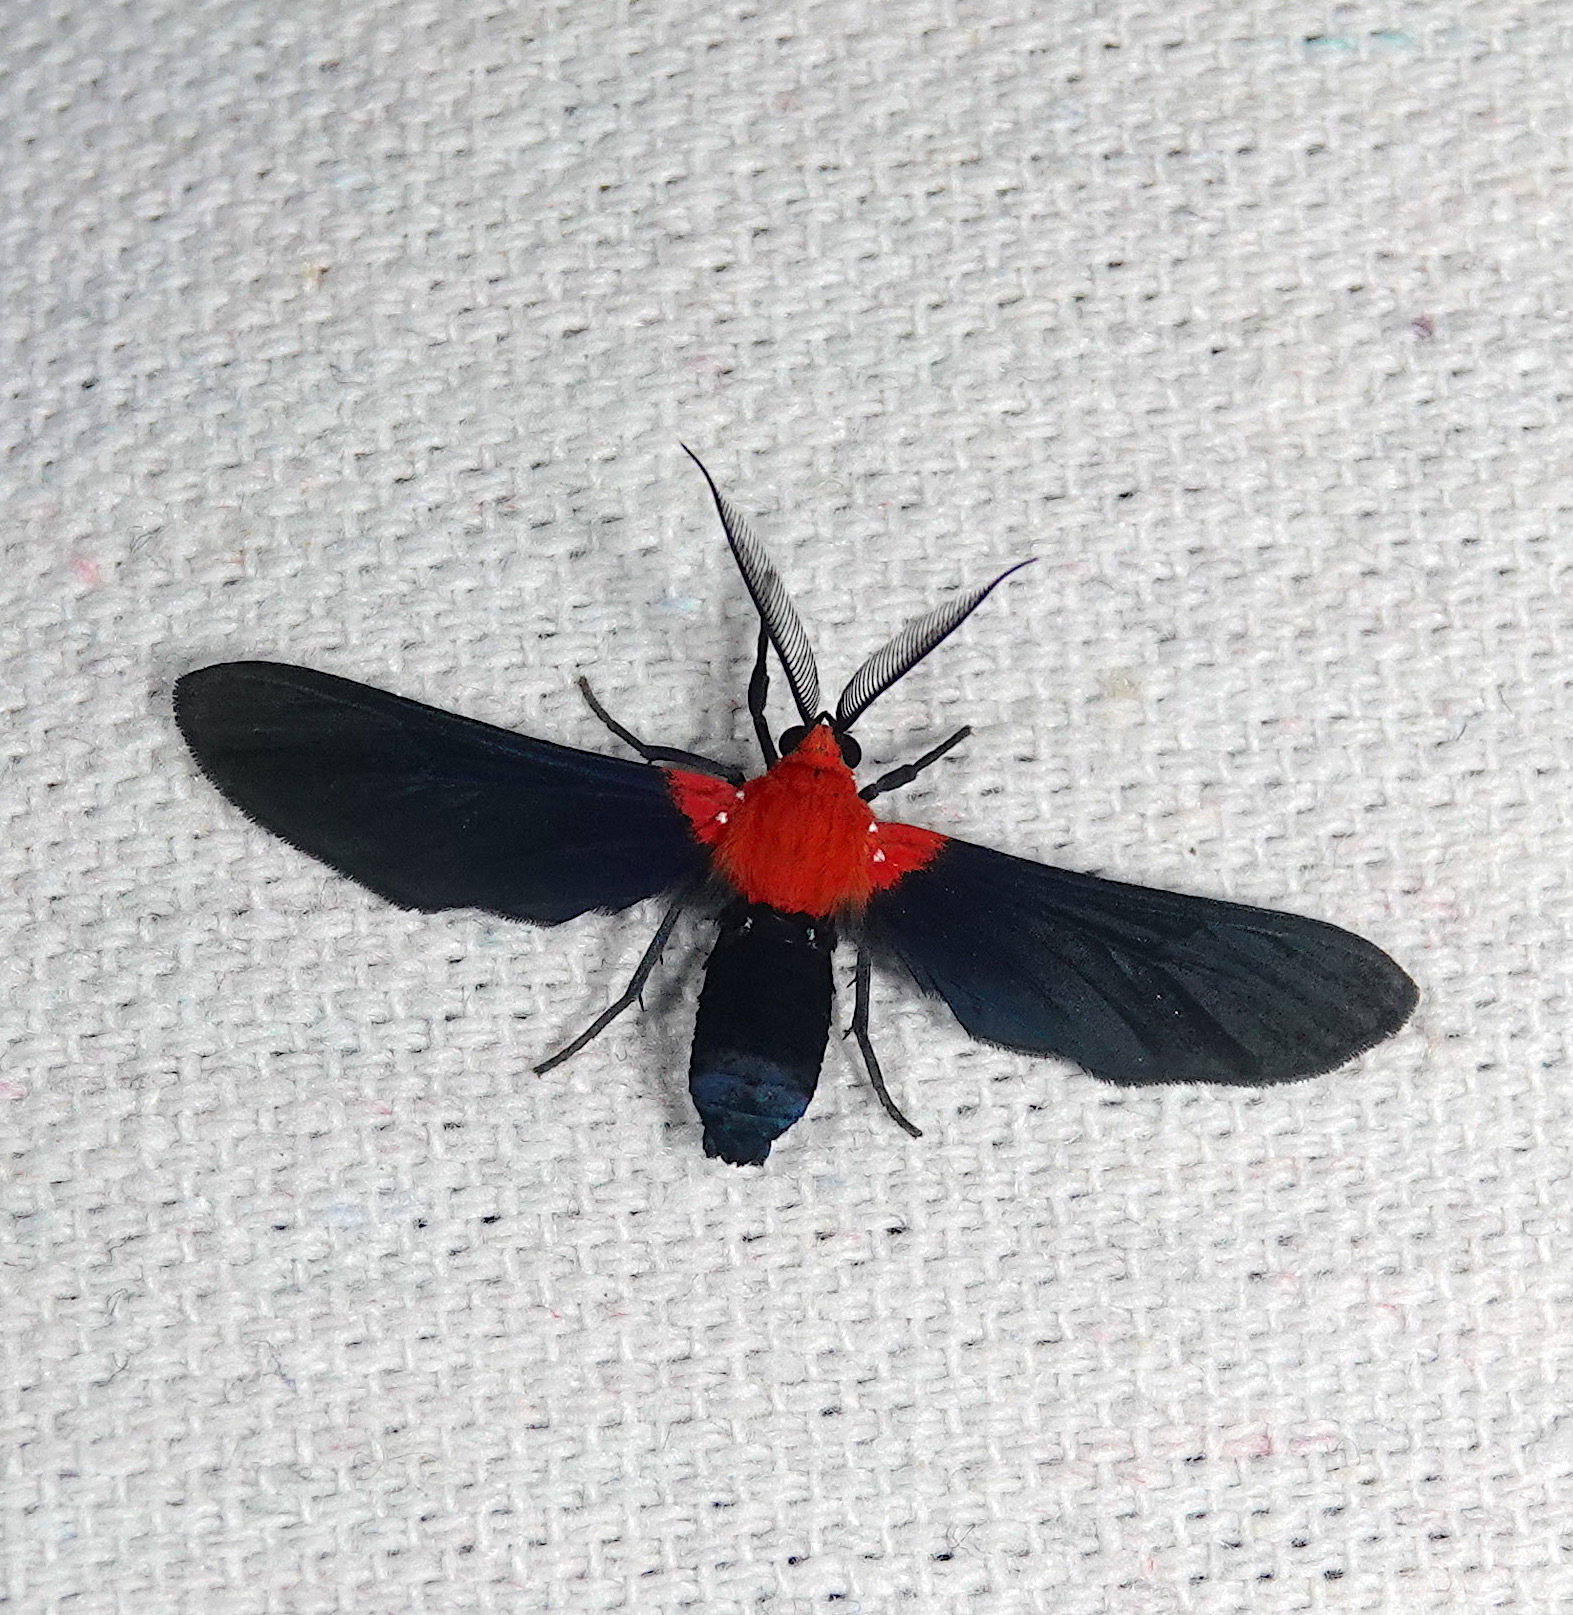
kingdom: Animalia
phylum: Arthropoda
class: Insecta
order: Lepidoptera
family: Erebidae
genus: Psoloptera
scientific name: Psoloptera basifulva
